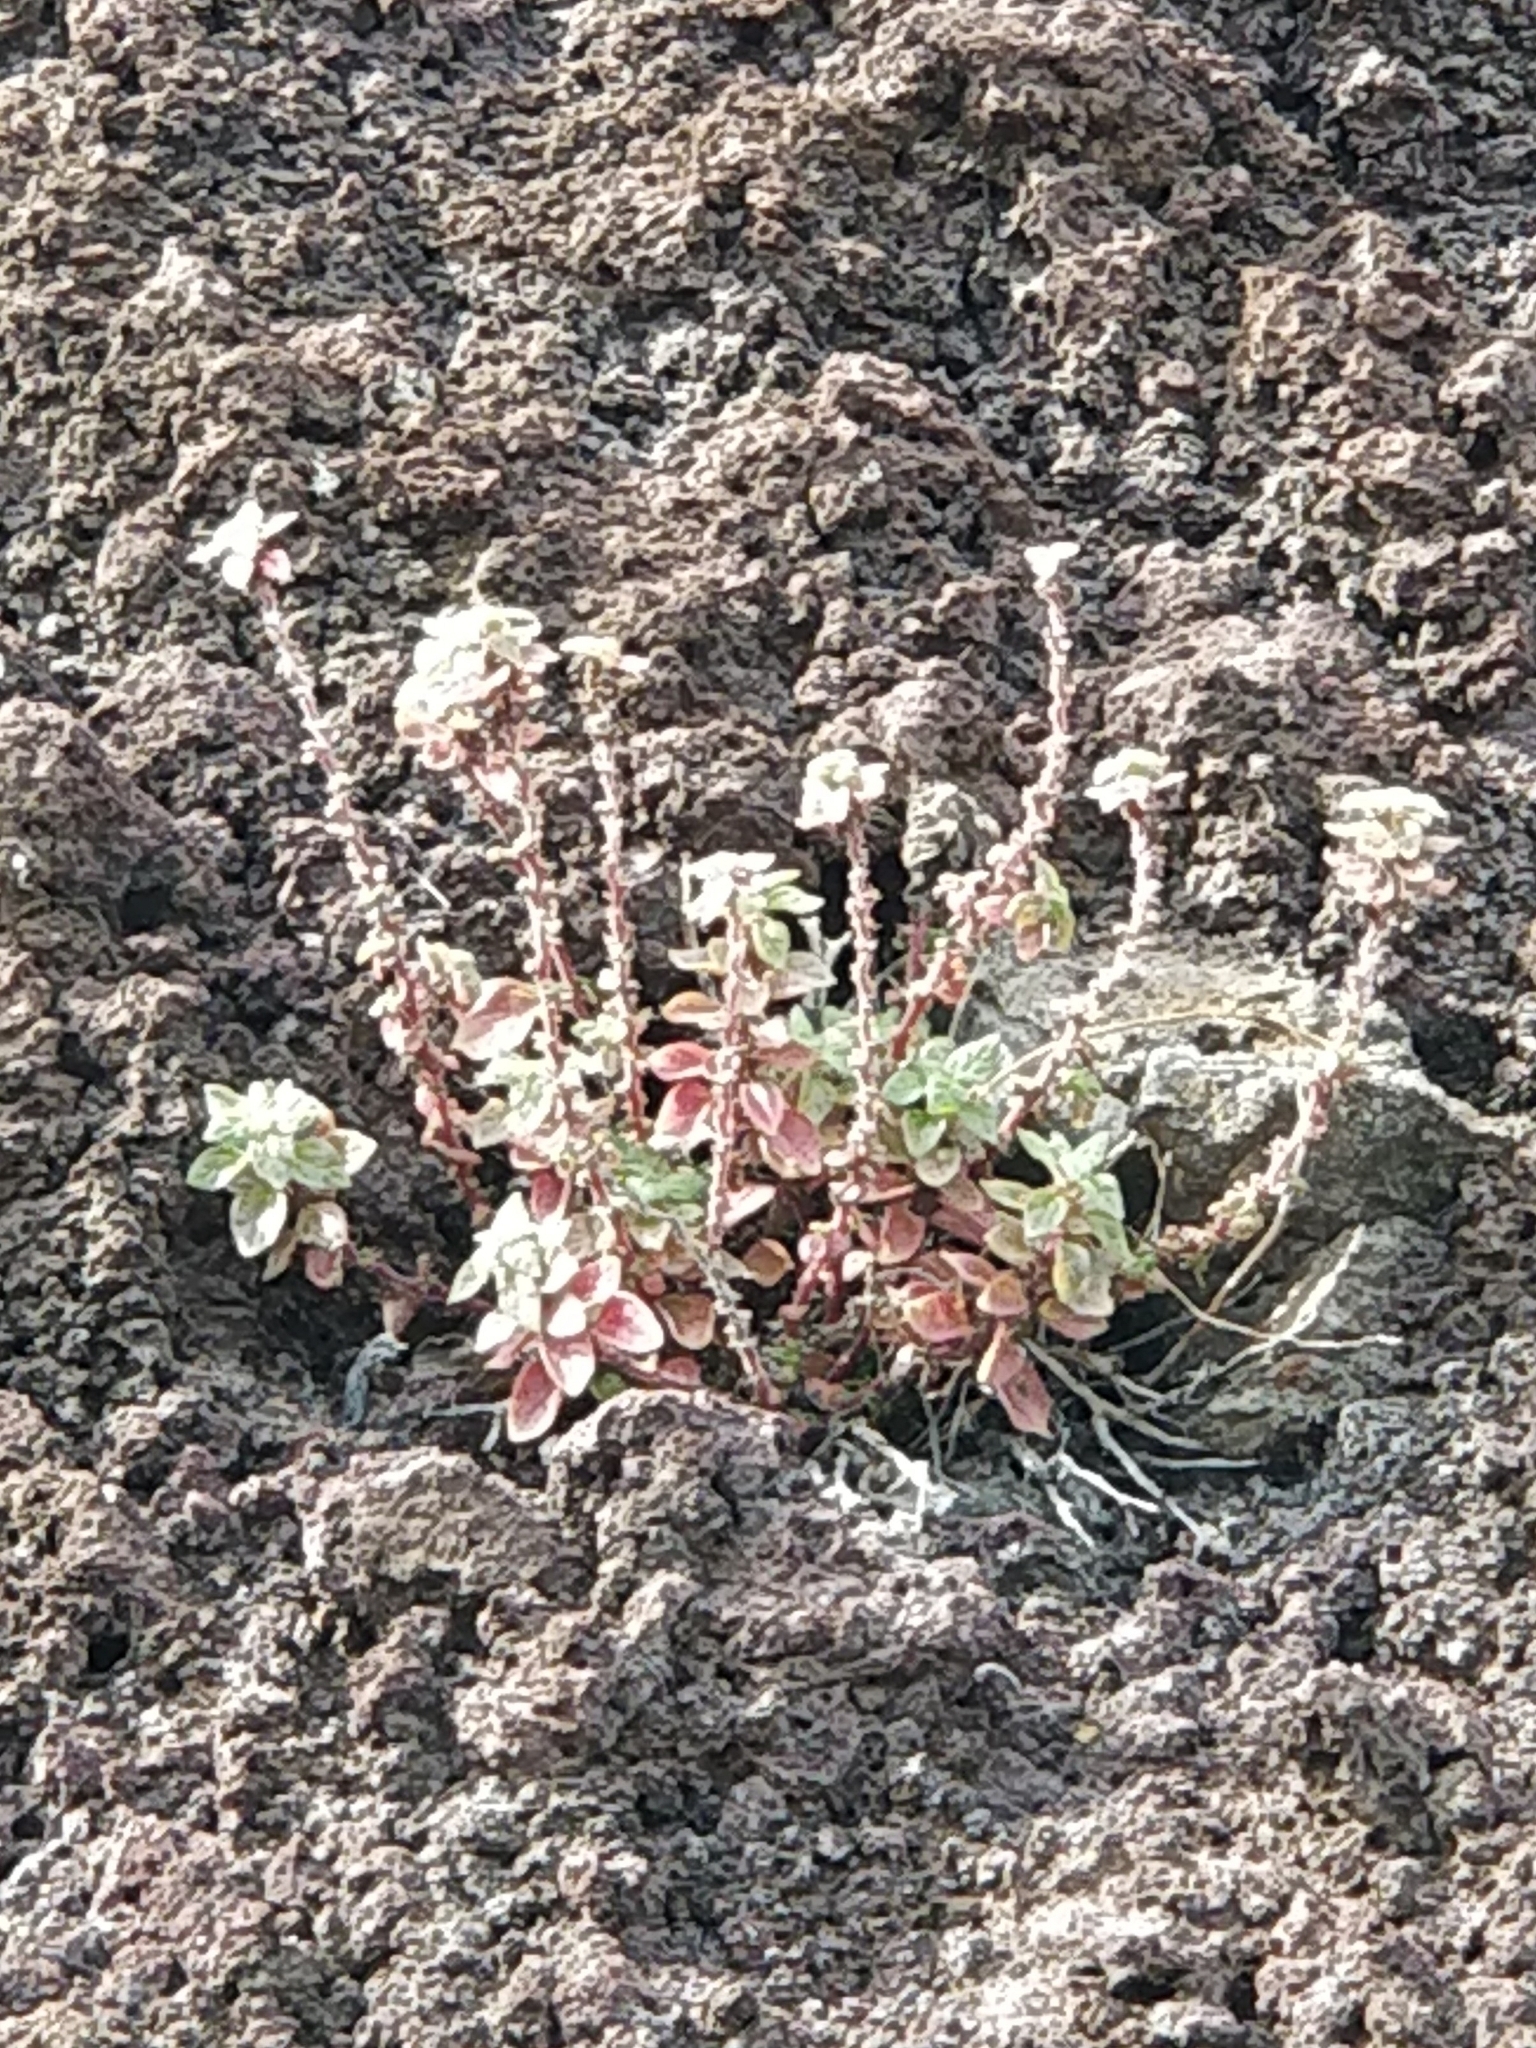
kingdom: Plantae
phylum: Tracheophyta
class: Magnoliopsida
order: Rosales
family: Urticaceae
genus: Parietaria
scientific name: Parietaria judaica
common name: Pellitory-of-the-wall
